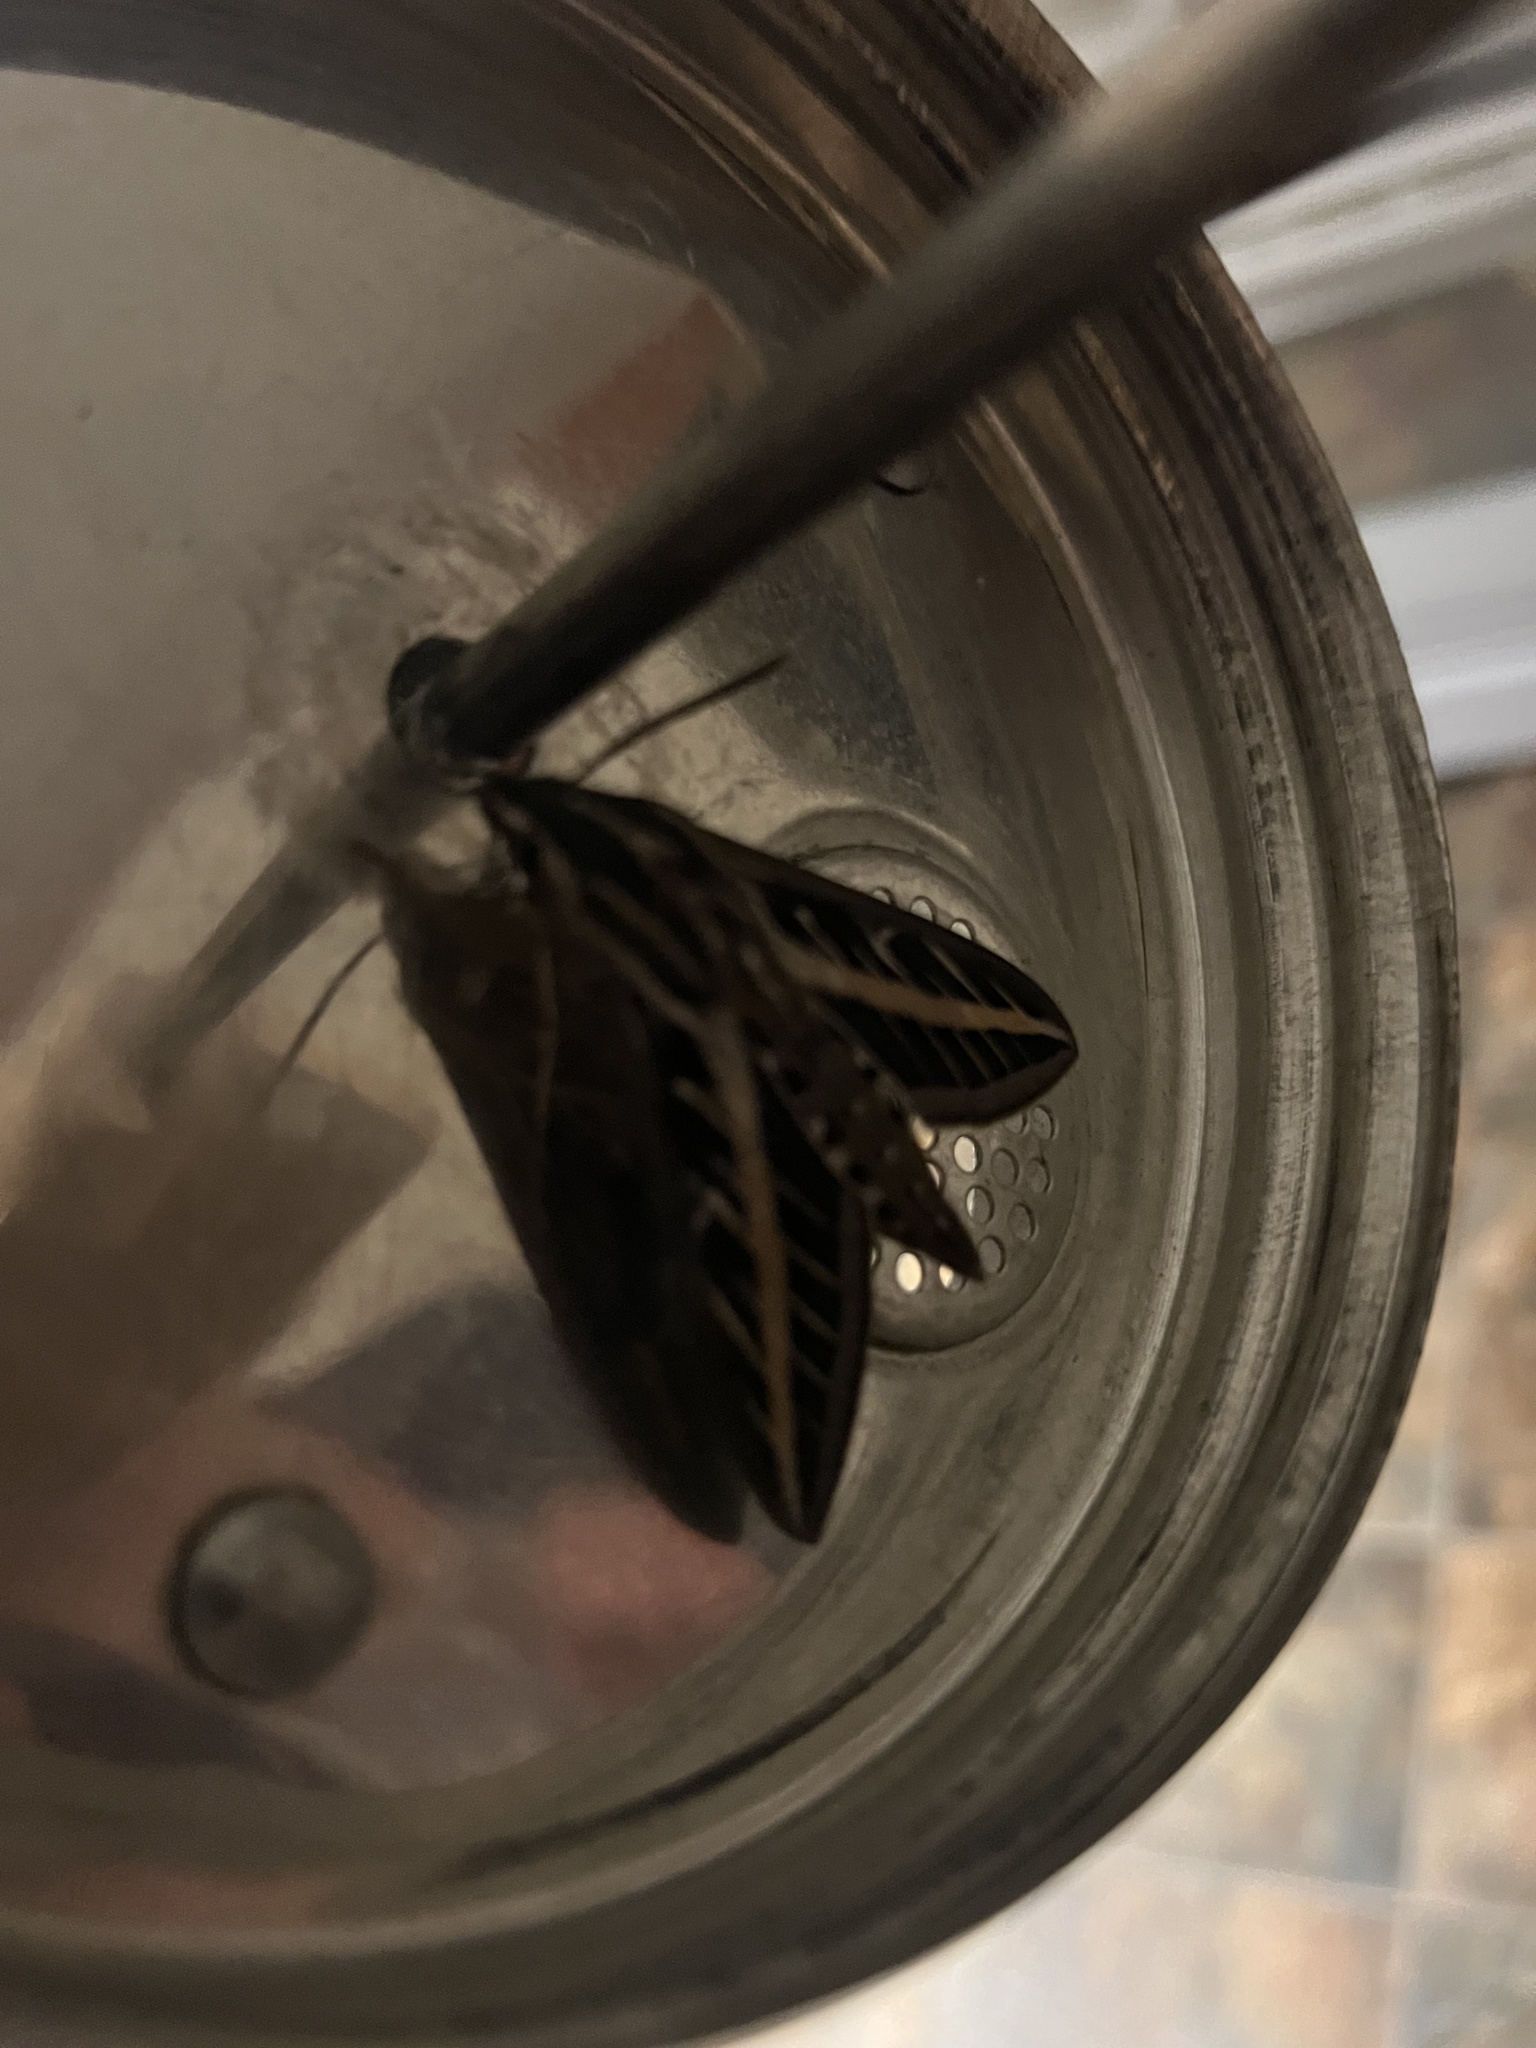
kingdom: Animalia
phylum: Arthropoda
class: Insecta
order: Lepidoptera
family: Sphingidae
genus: Hyles
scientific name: Hyles lineata
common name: White-lined sphinx
